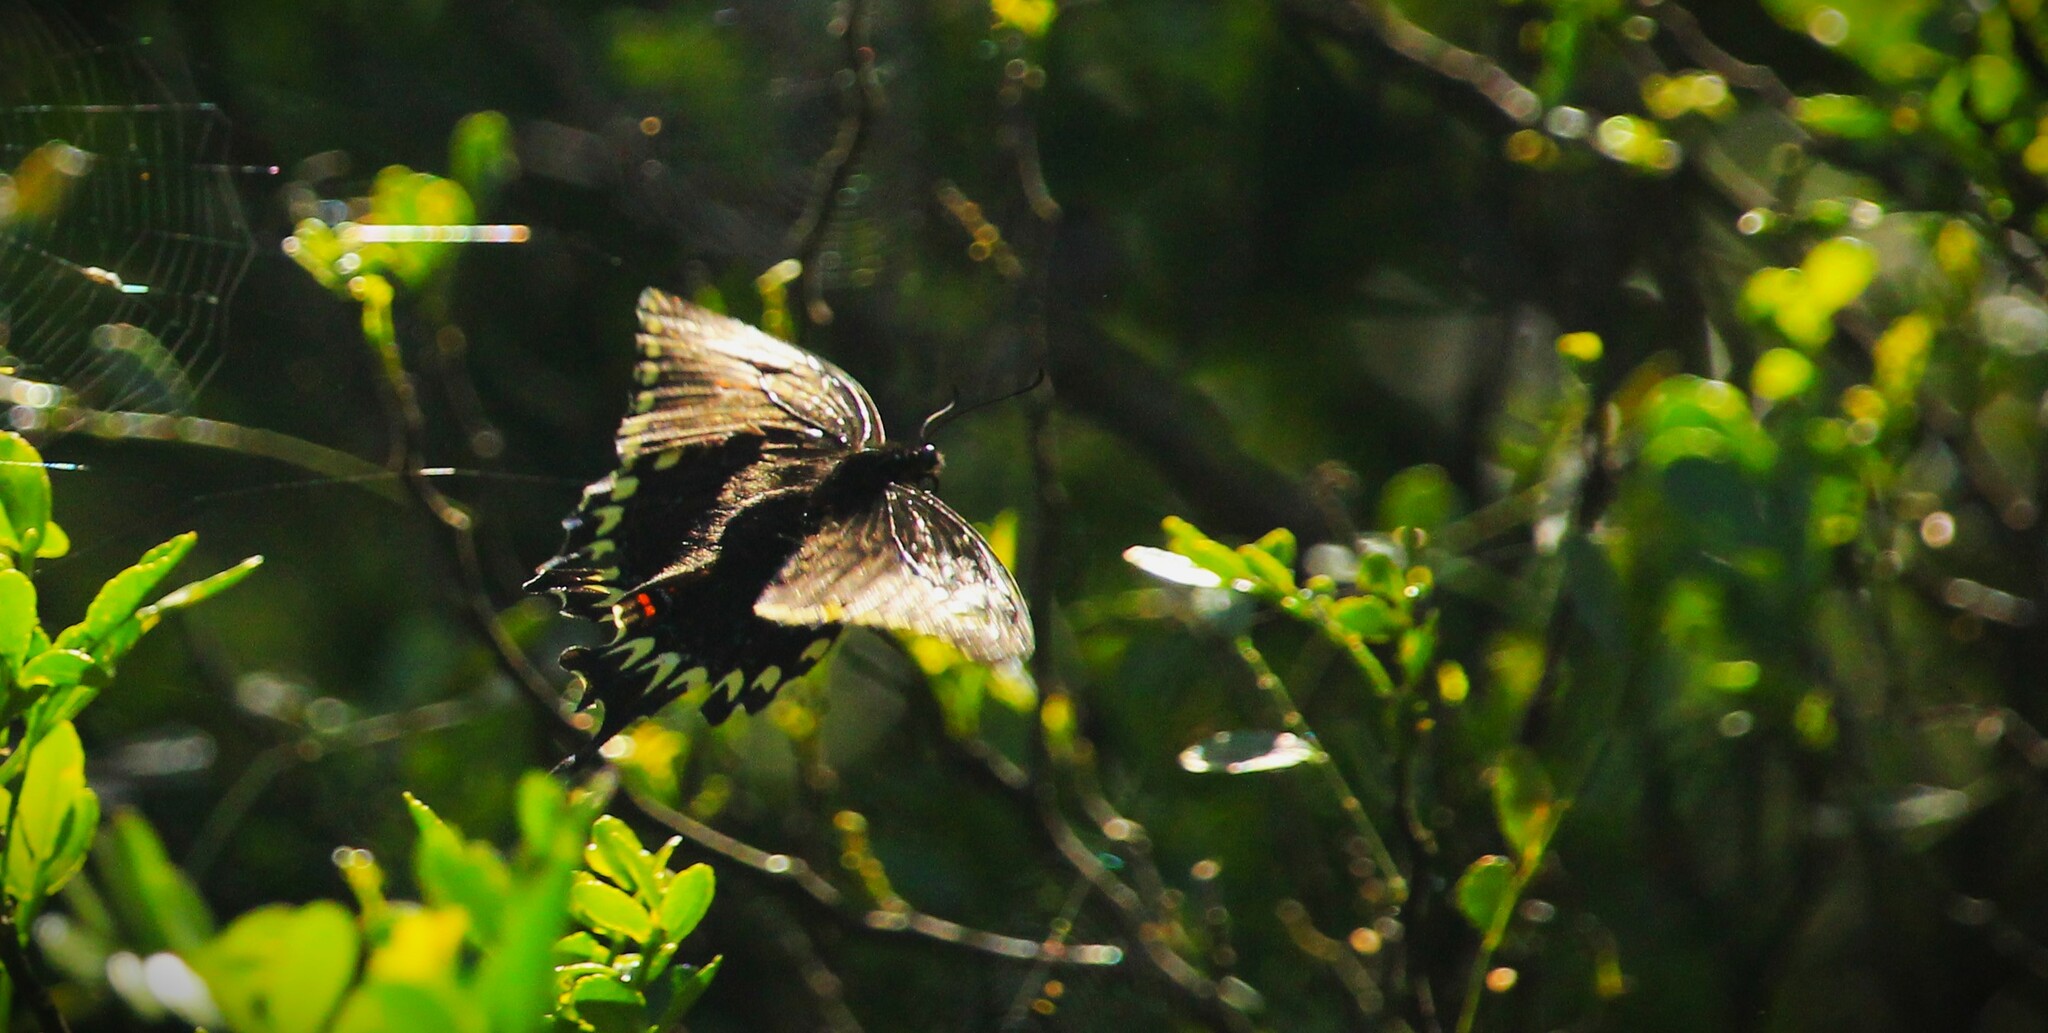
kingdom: Animalia
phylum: Arthropoda
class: Insecta
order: Lepidoptera
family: Papilionidae
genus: Papilio
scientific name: Papilio astyalus
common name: Astyalus swallowtail
